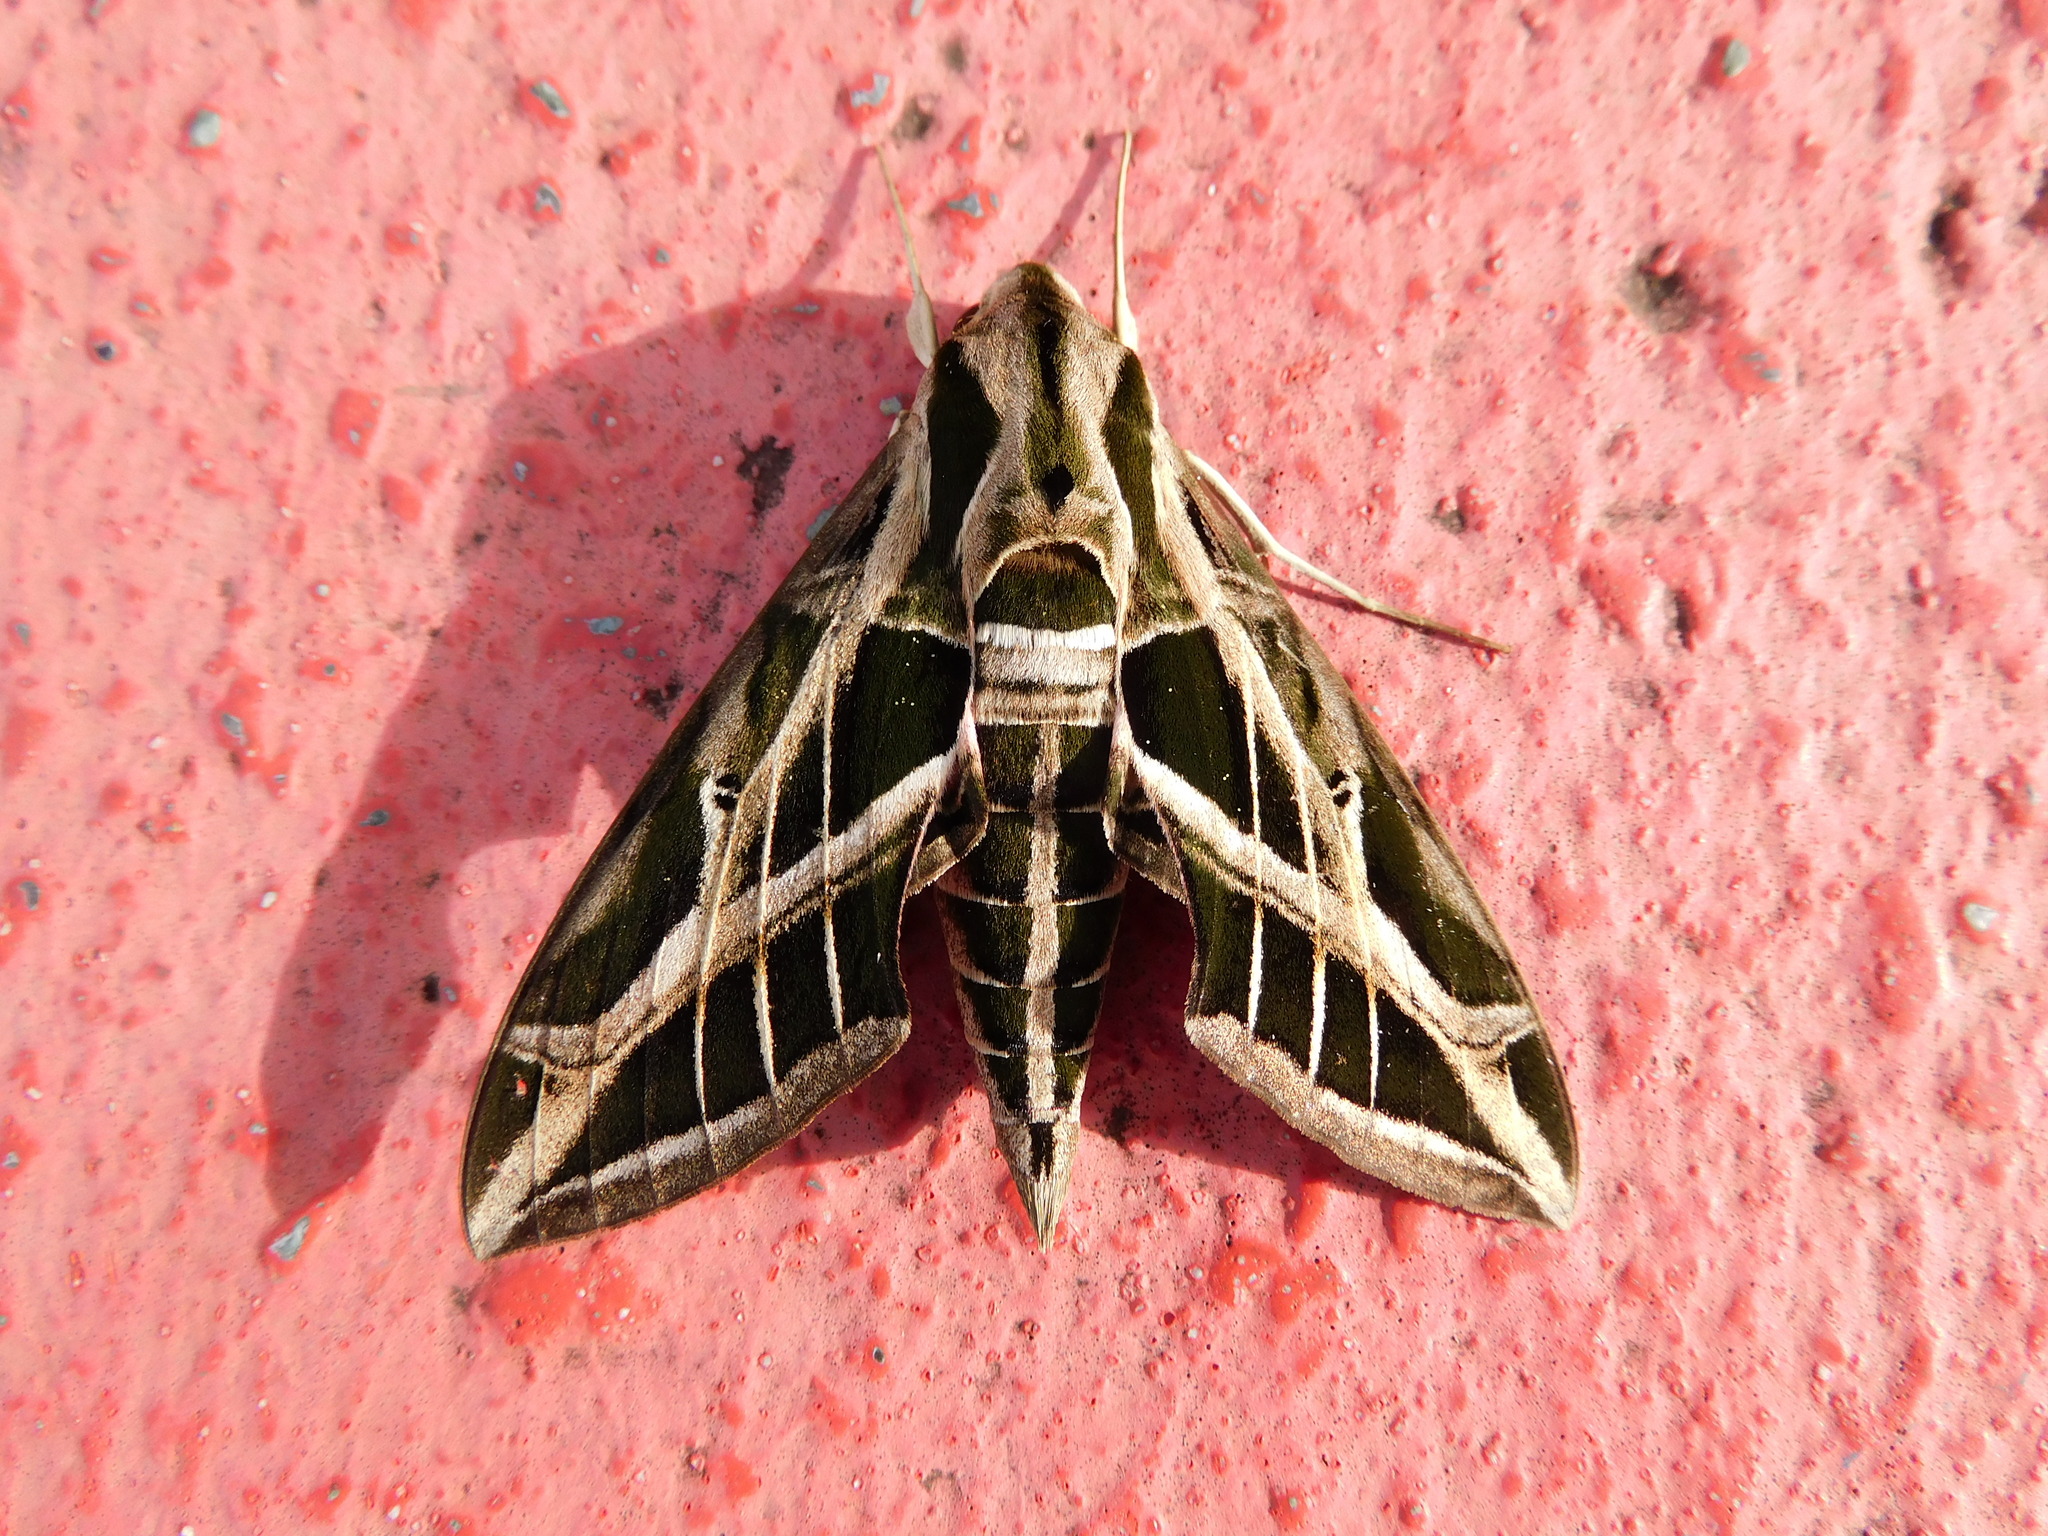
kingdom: Animalia
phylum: Arthropoda
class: Insecta
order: Lepidoptera
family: Sphingidae
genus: Eumorpha
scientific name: Eumorpha vitis
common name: Vine sphinx
